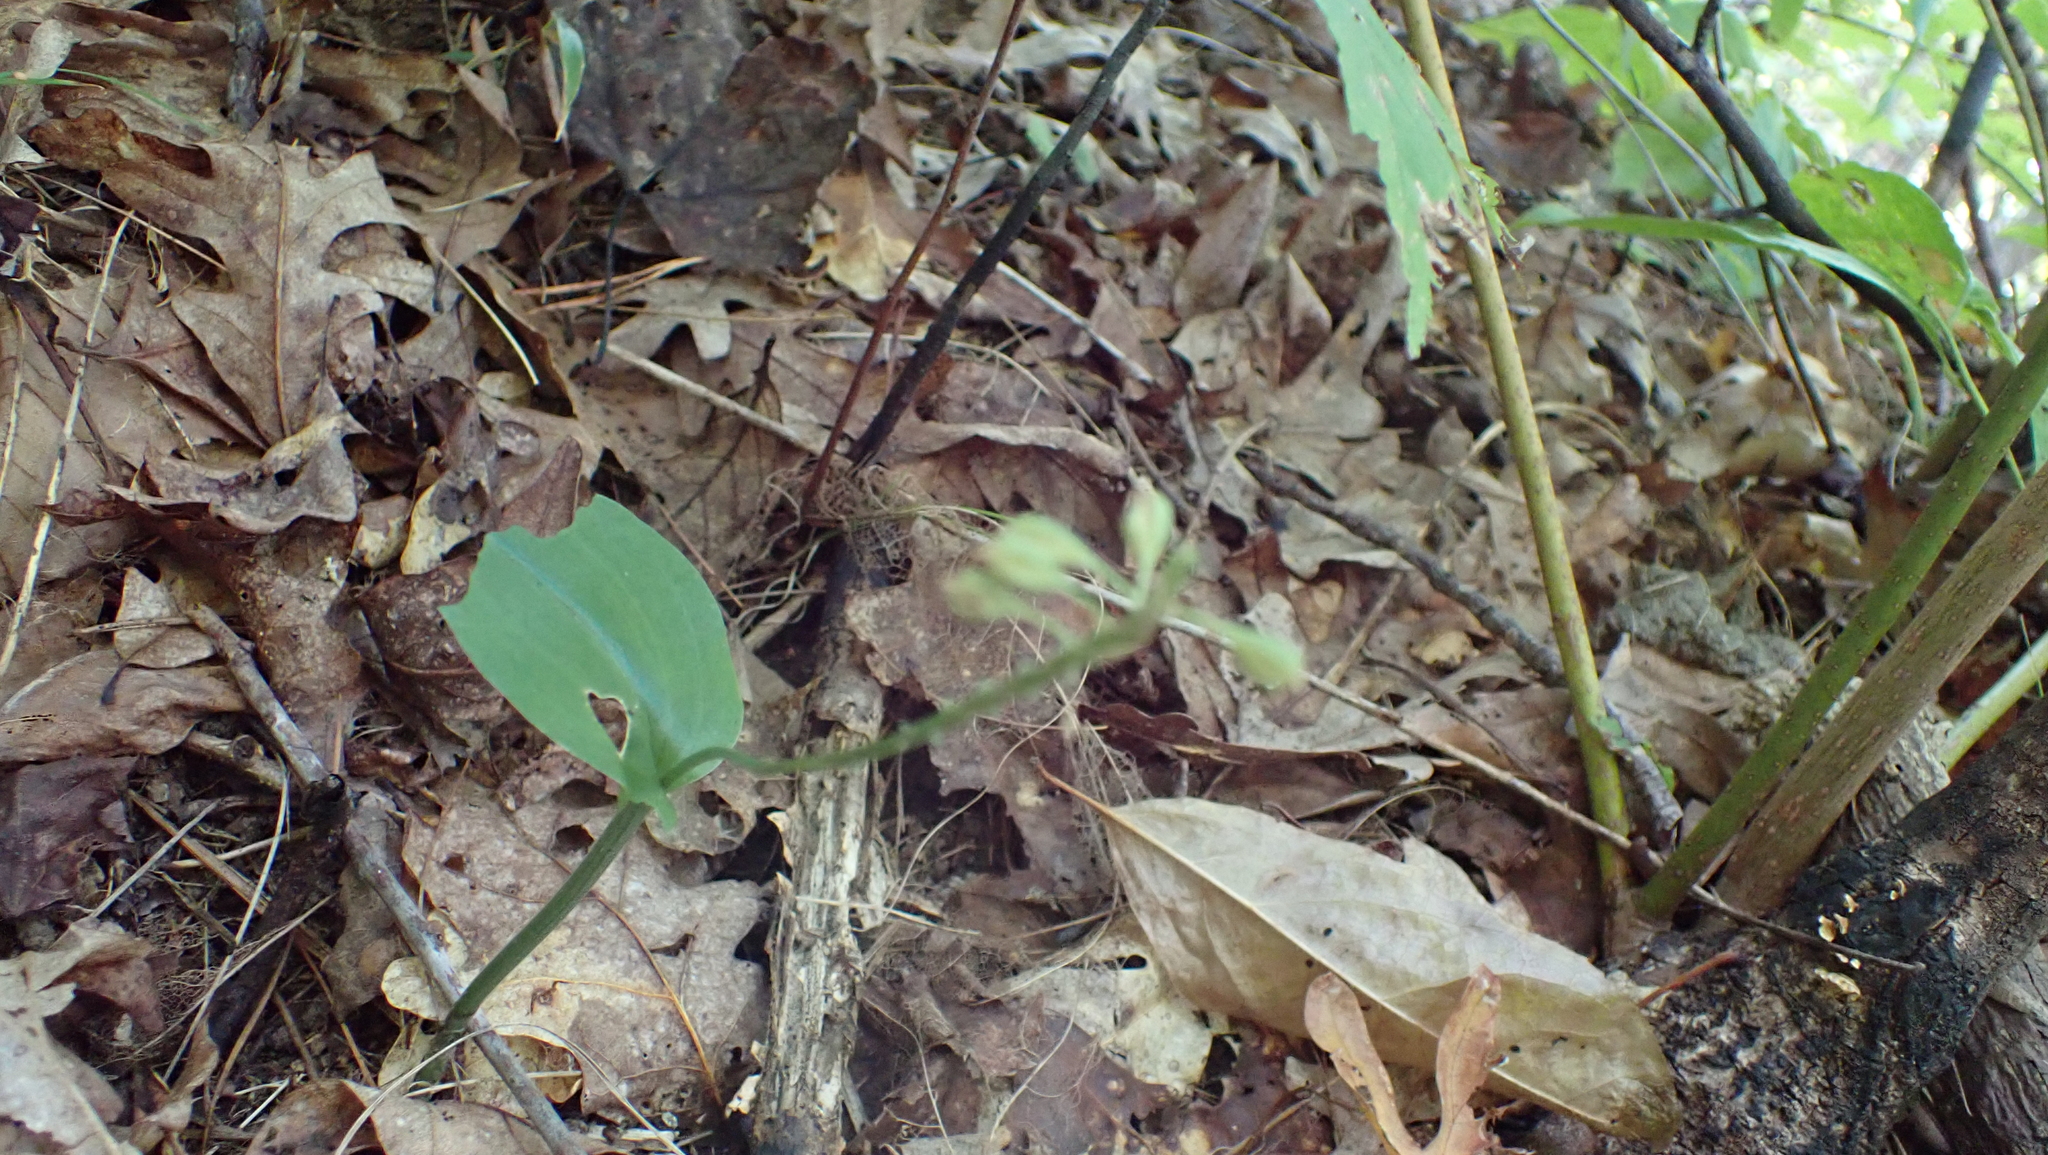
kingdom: Plantae
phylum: Tracheophyta
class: Liliopsida
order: Asparagales
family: Orchidaceae
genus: Malaxis
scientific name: Malaxis unifolia
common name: Green adder's-mouth
